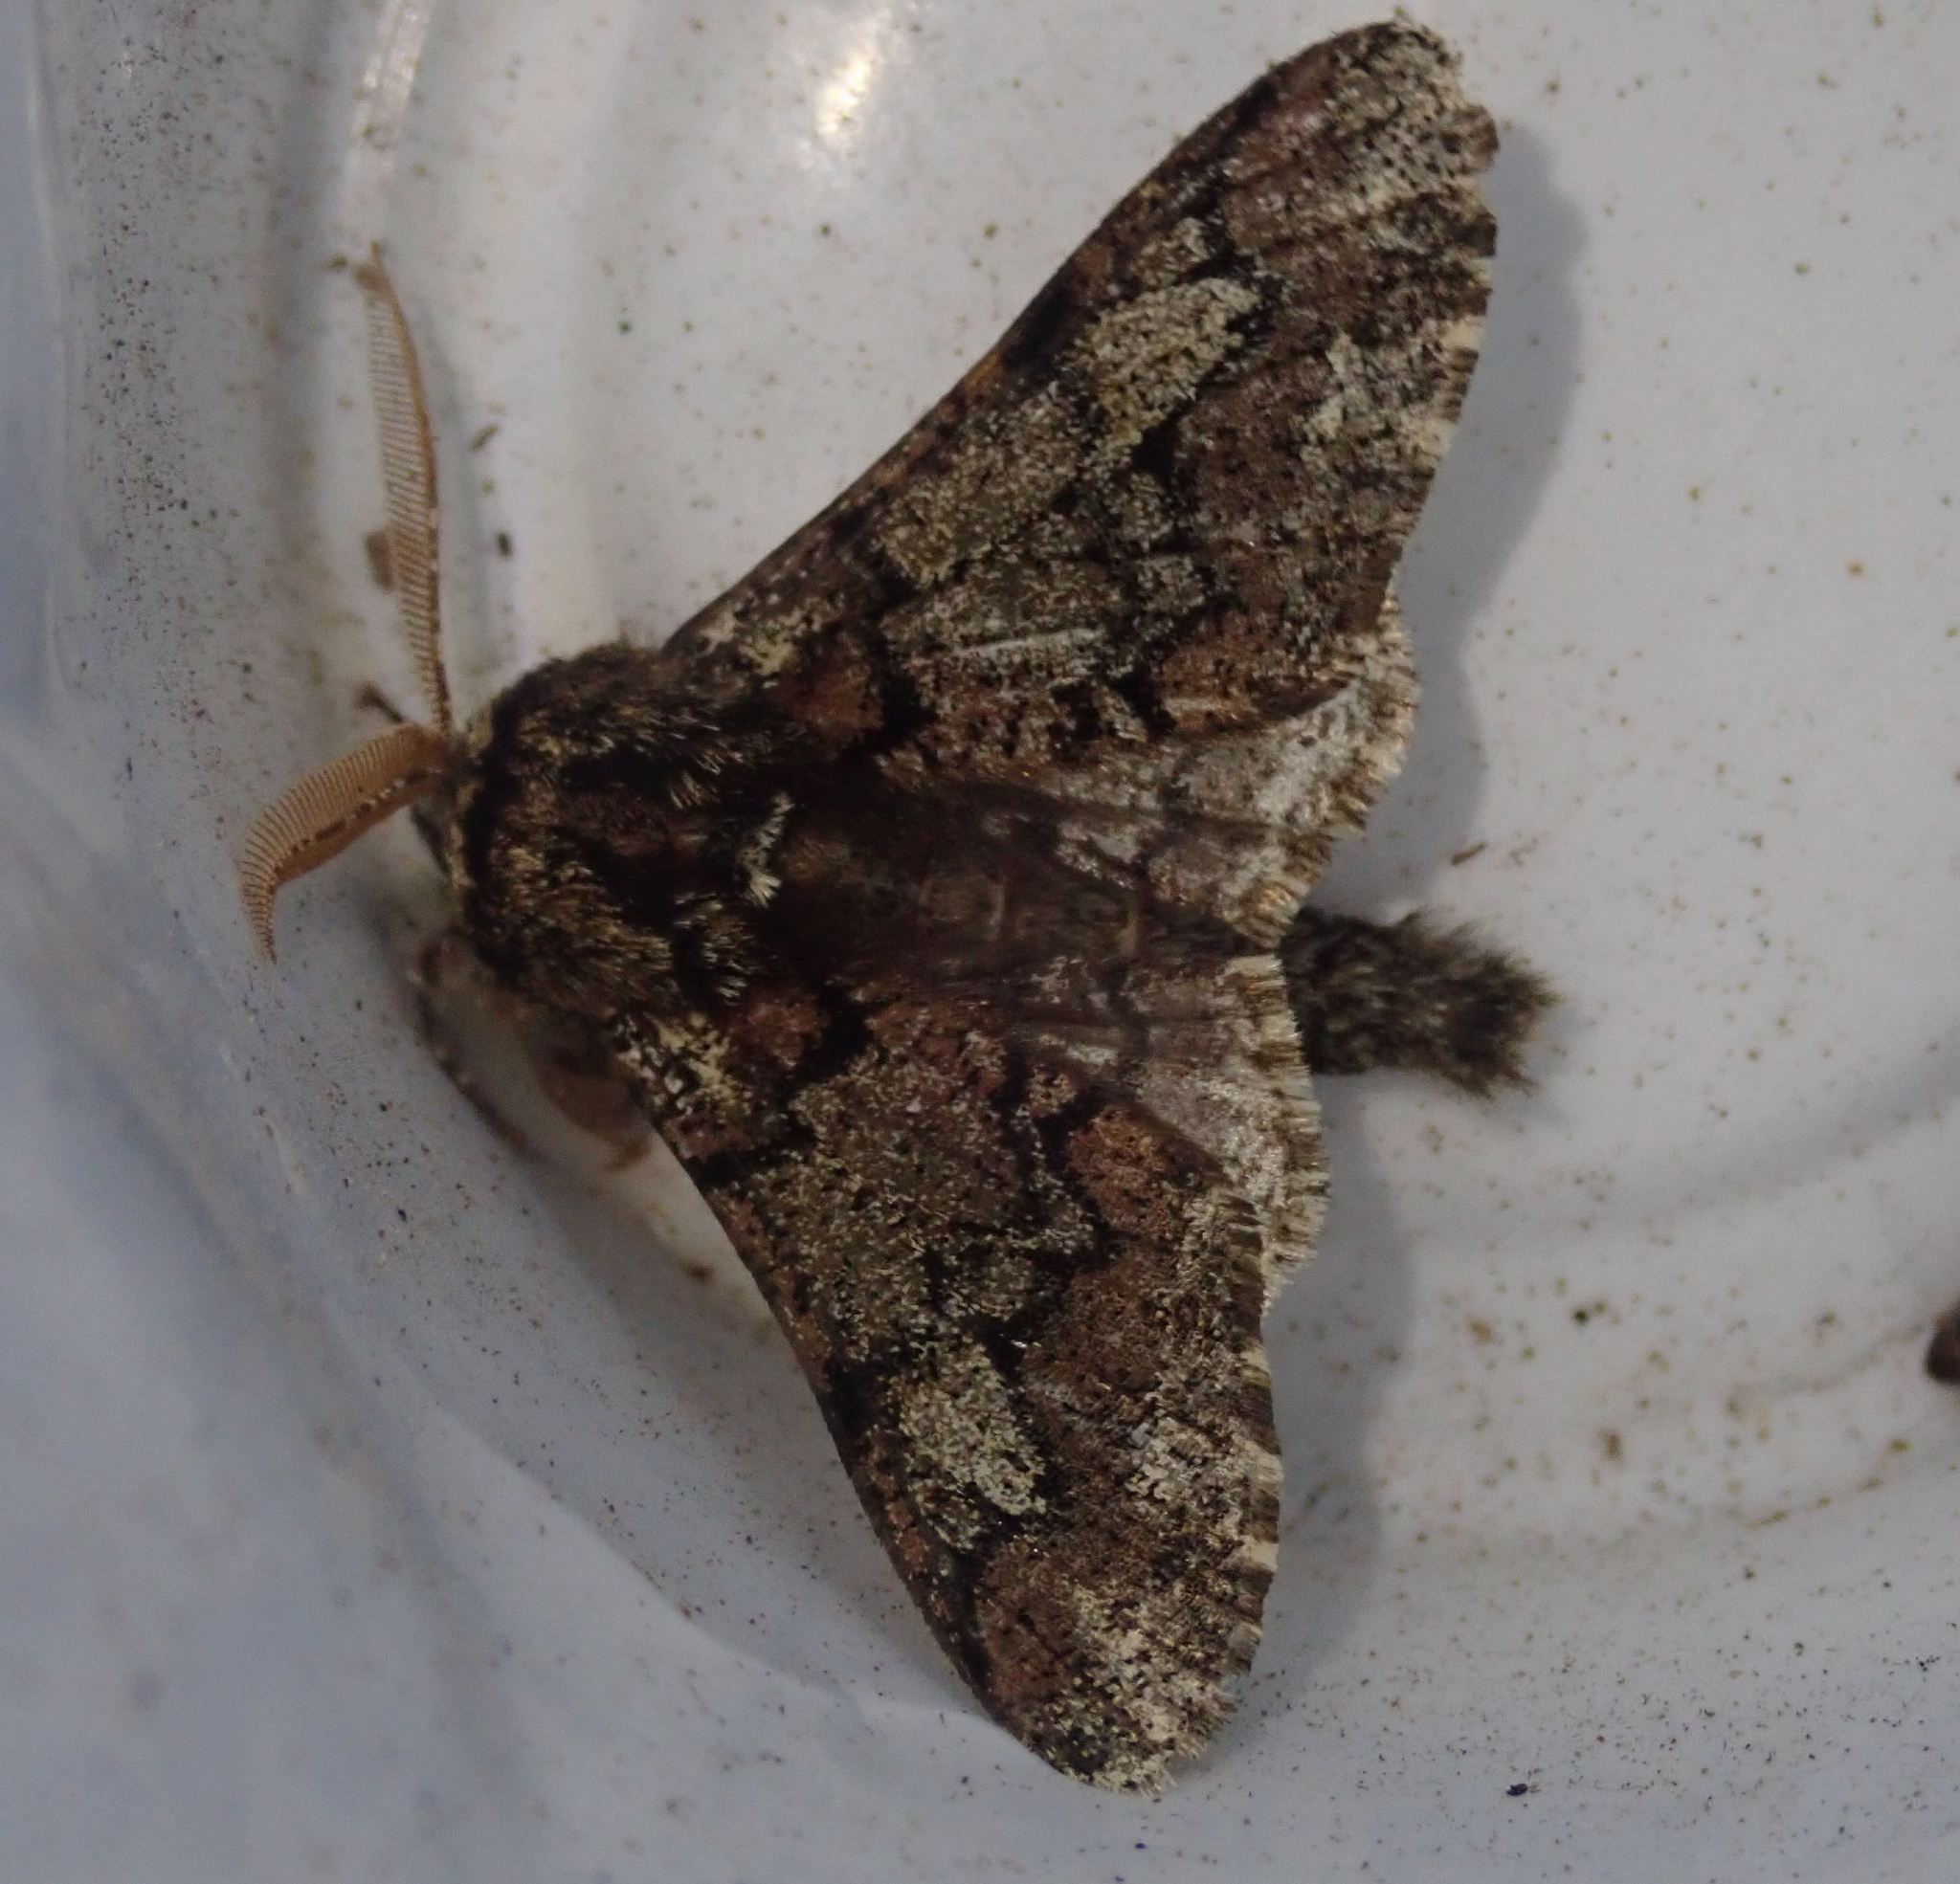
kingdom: Animalia
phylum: Arthropoda
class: Insecta
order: Lepidoptera
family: Geometridae
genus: Biston
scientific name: Biston strataria
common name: Oak beauty
